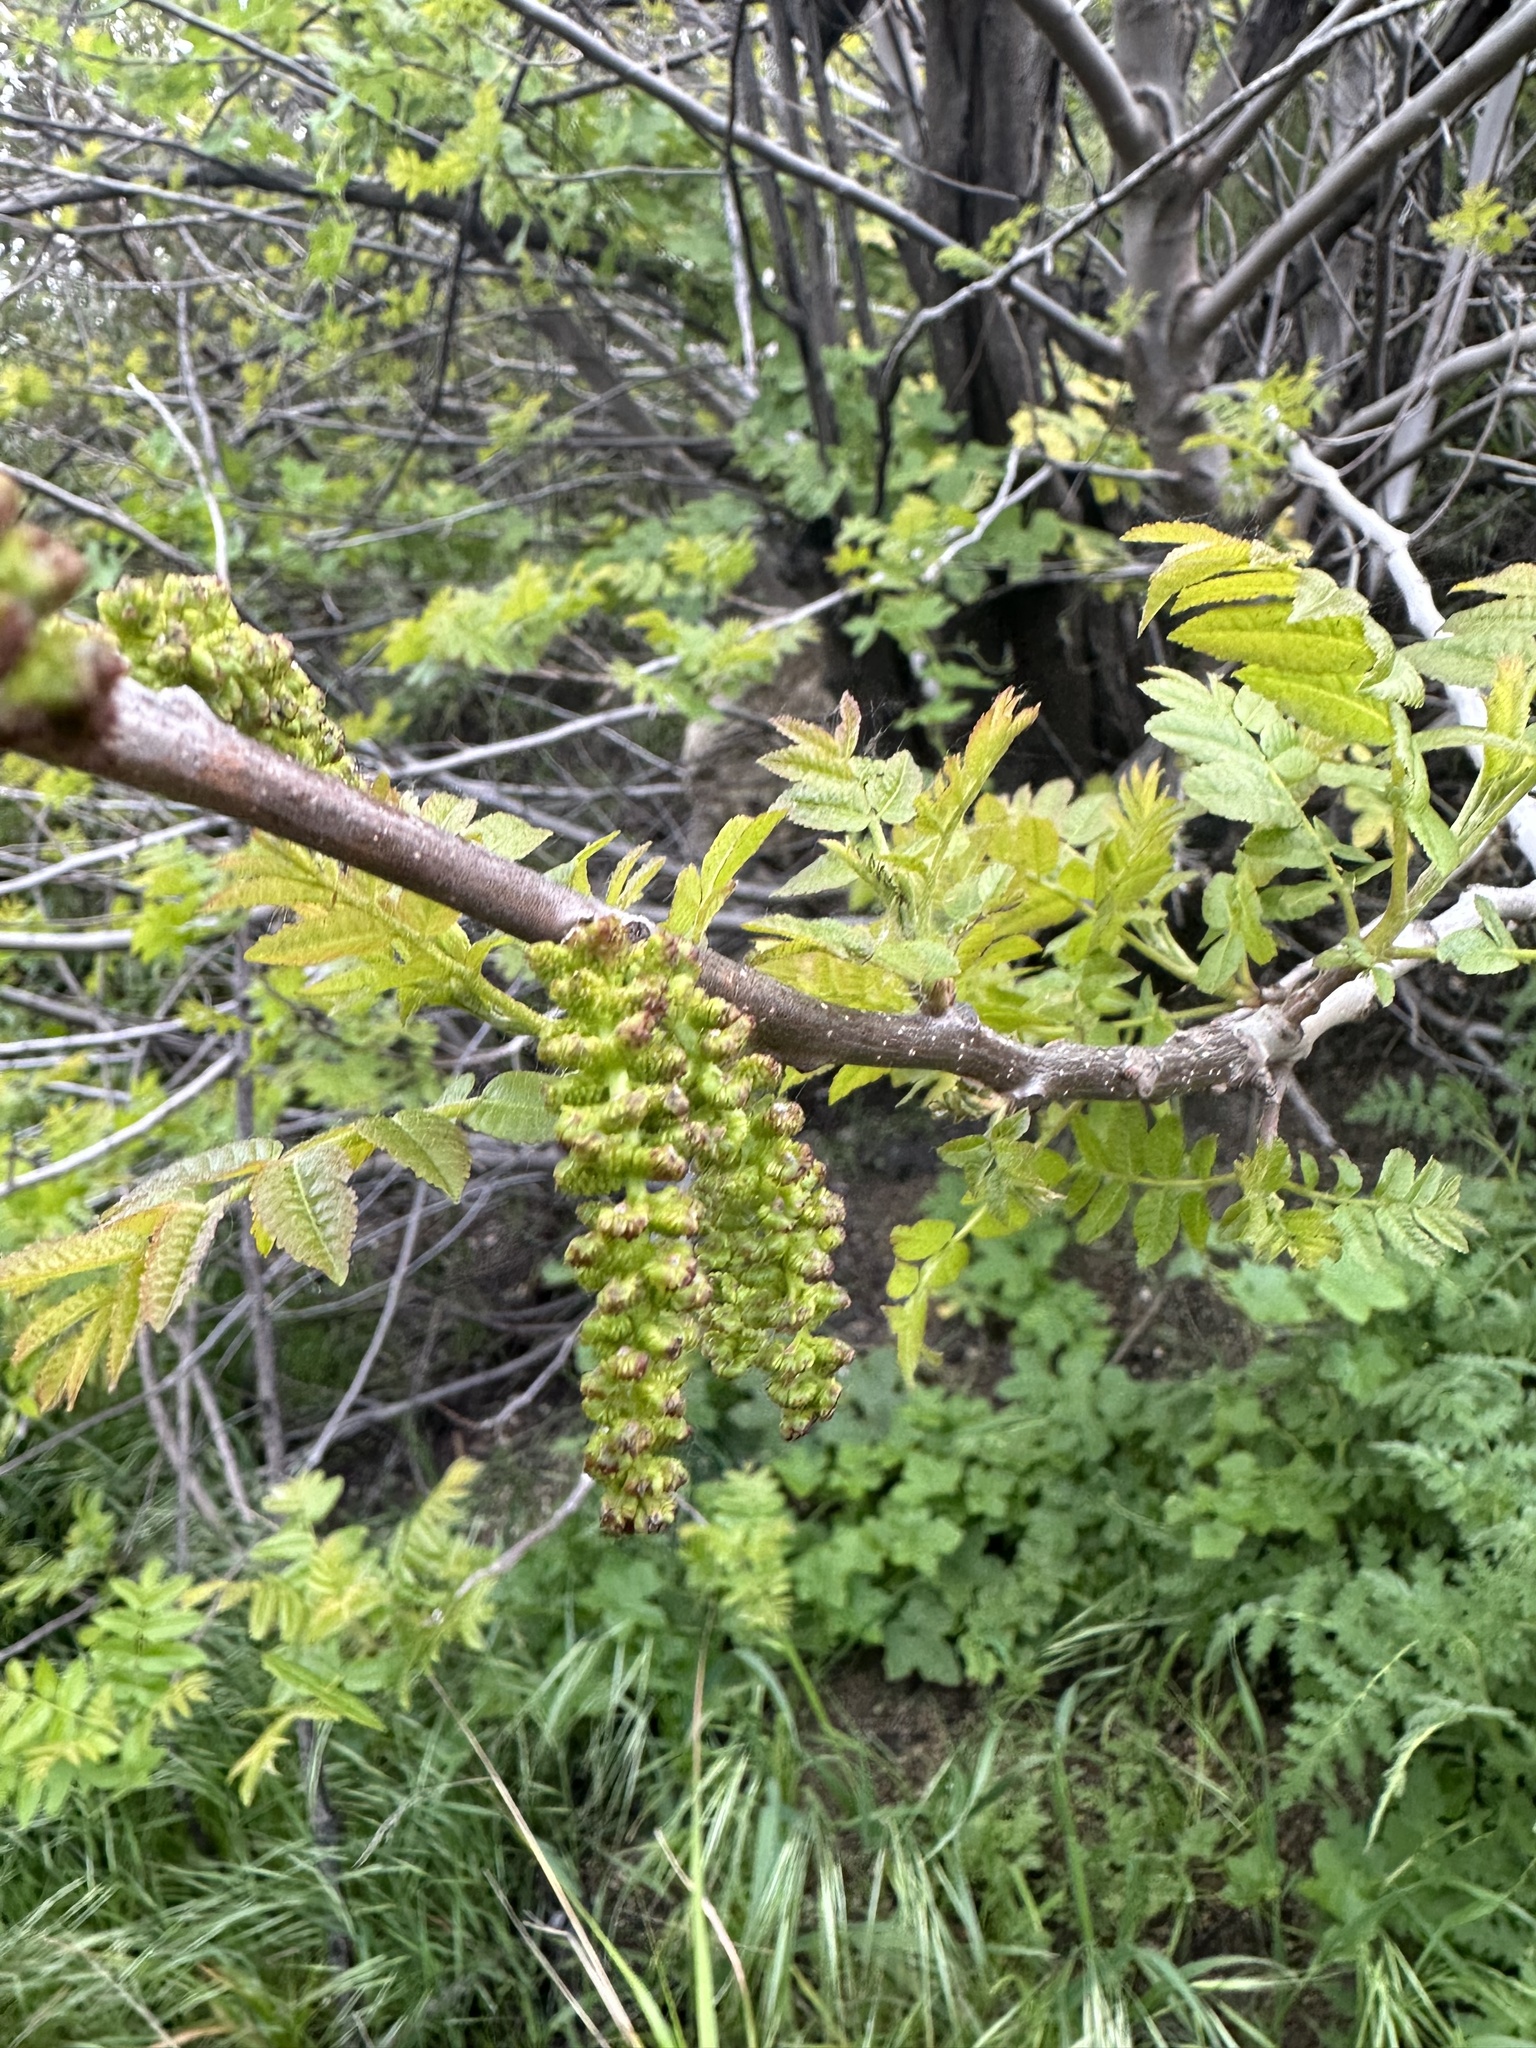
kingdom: Plantae
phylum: Tracheophyta
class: Magnoliopsida
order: Fagales
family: Juglandaceae
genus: Juglans
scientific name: Juglans californica
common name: Southern california black walnut
